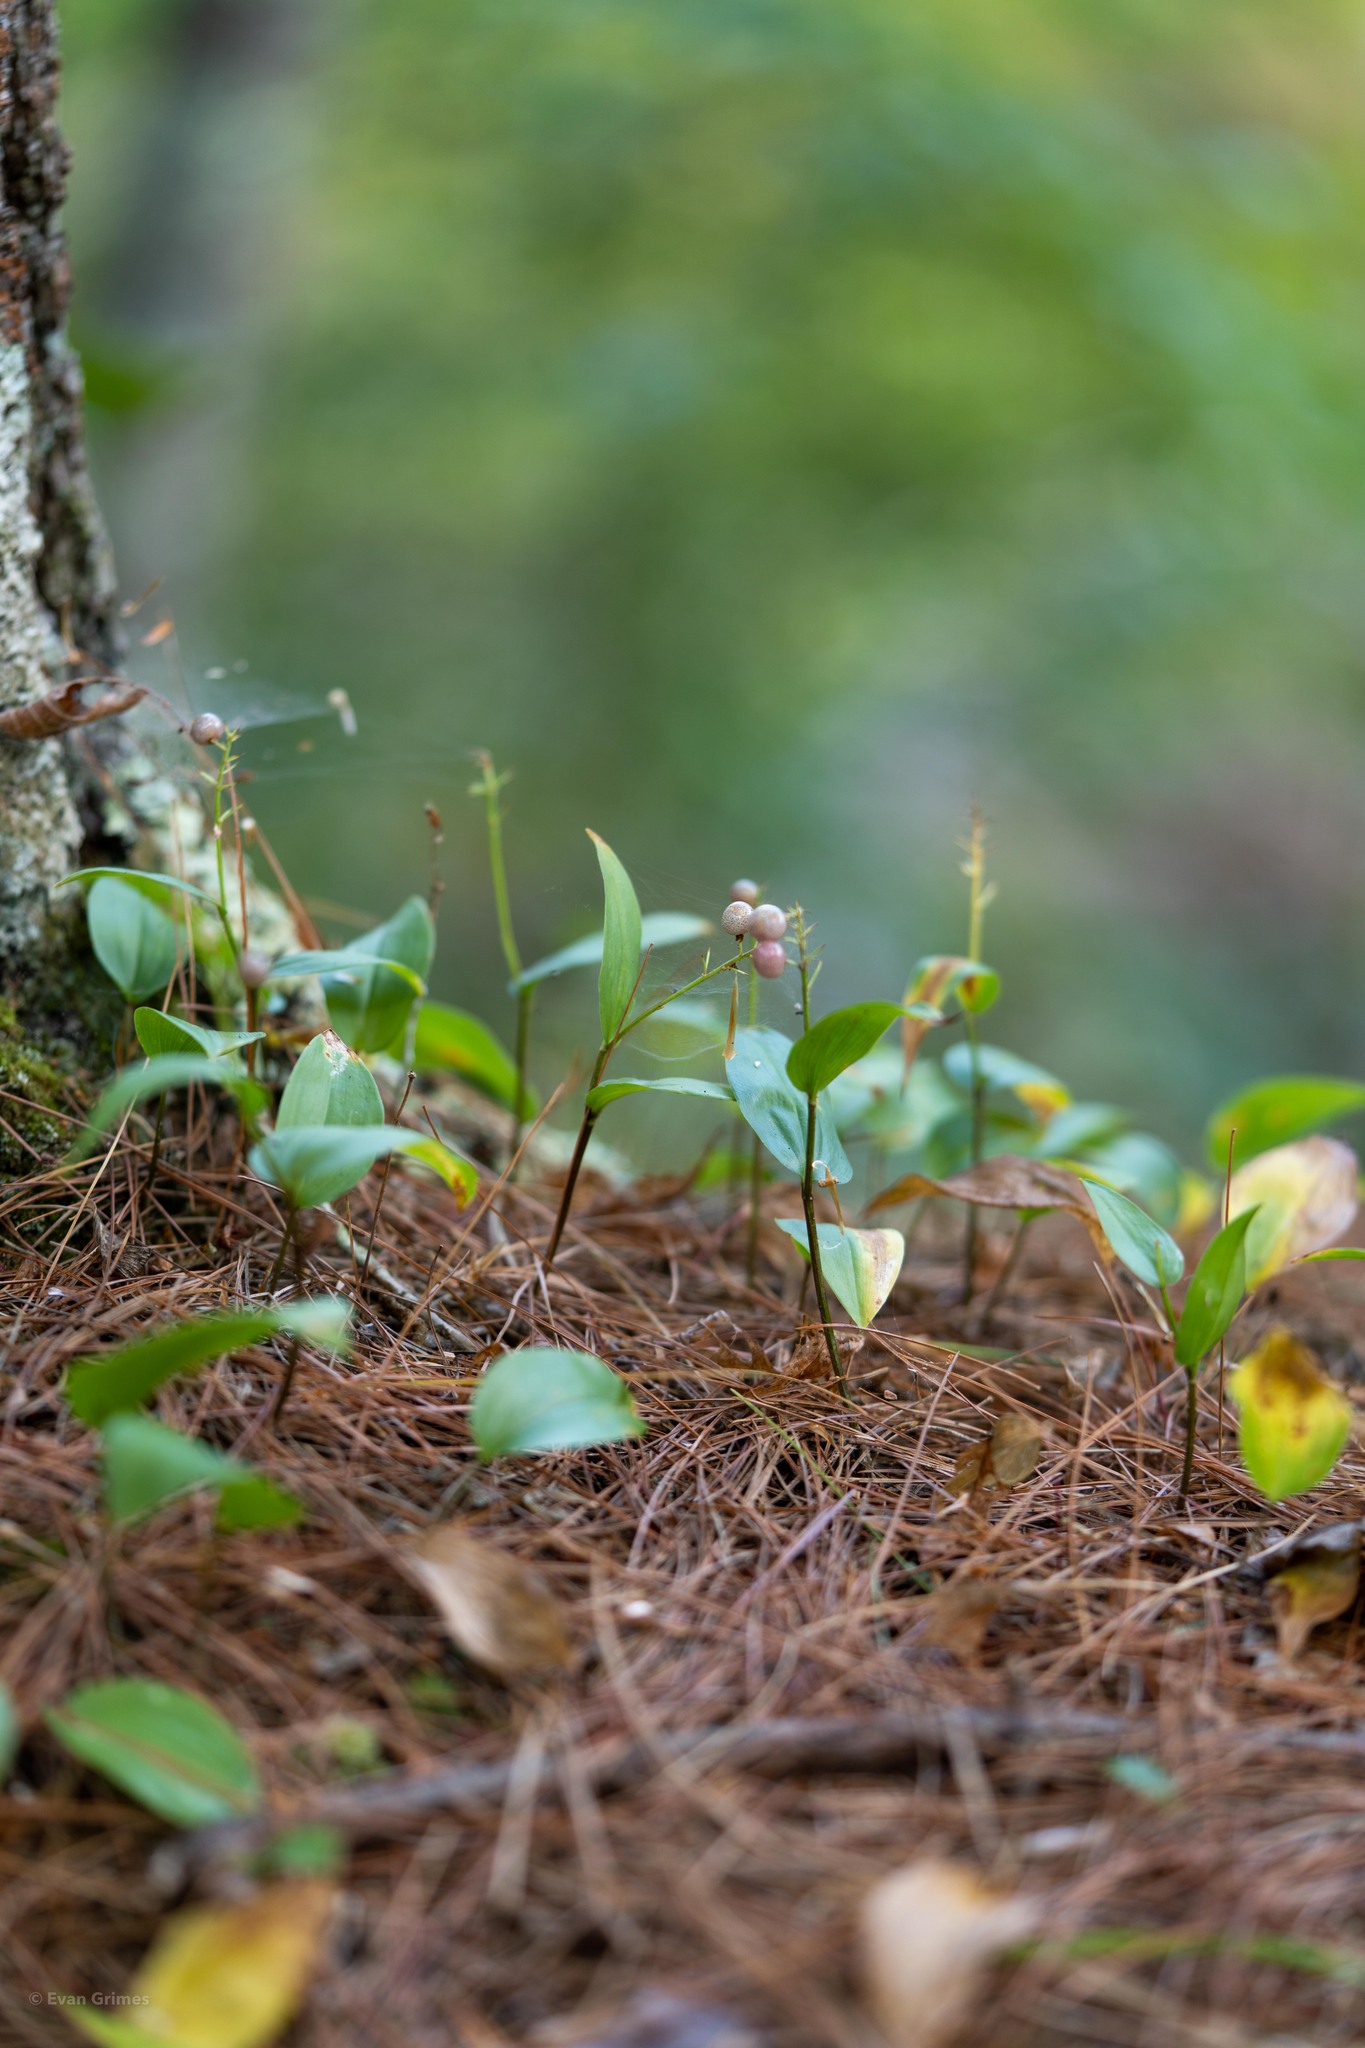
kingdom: Plantae
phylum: Tracheophyta
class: Liliopsida
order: Asparagales
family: Asparagaceae
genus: Maianthemum
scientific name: Maianthemum canadense
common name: False lily-of-the-valley
